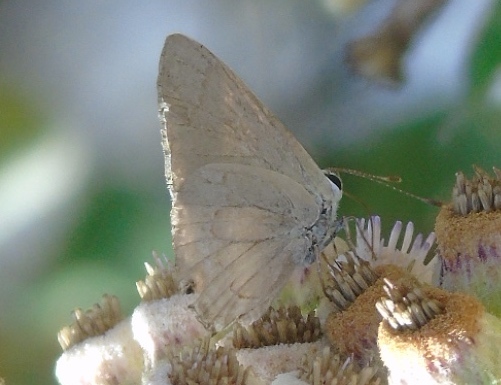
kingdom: Animalia
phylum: Arthropoda
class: Insecta
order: Lepidoptera
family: Lycaenidae
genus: Thecla
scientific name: Thecla rufofusca
